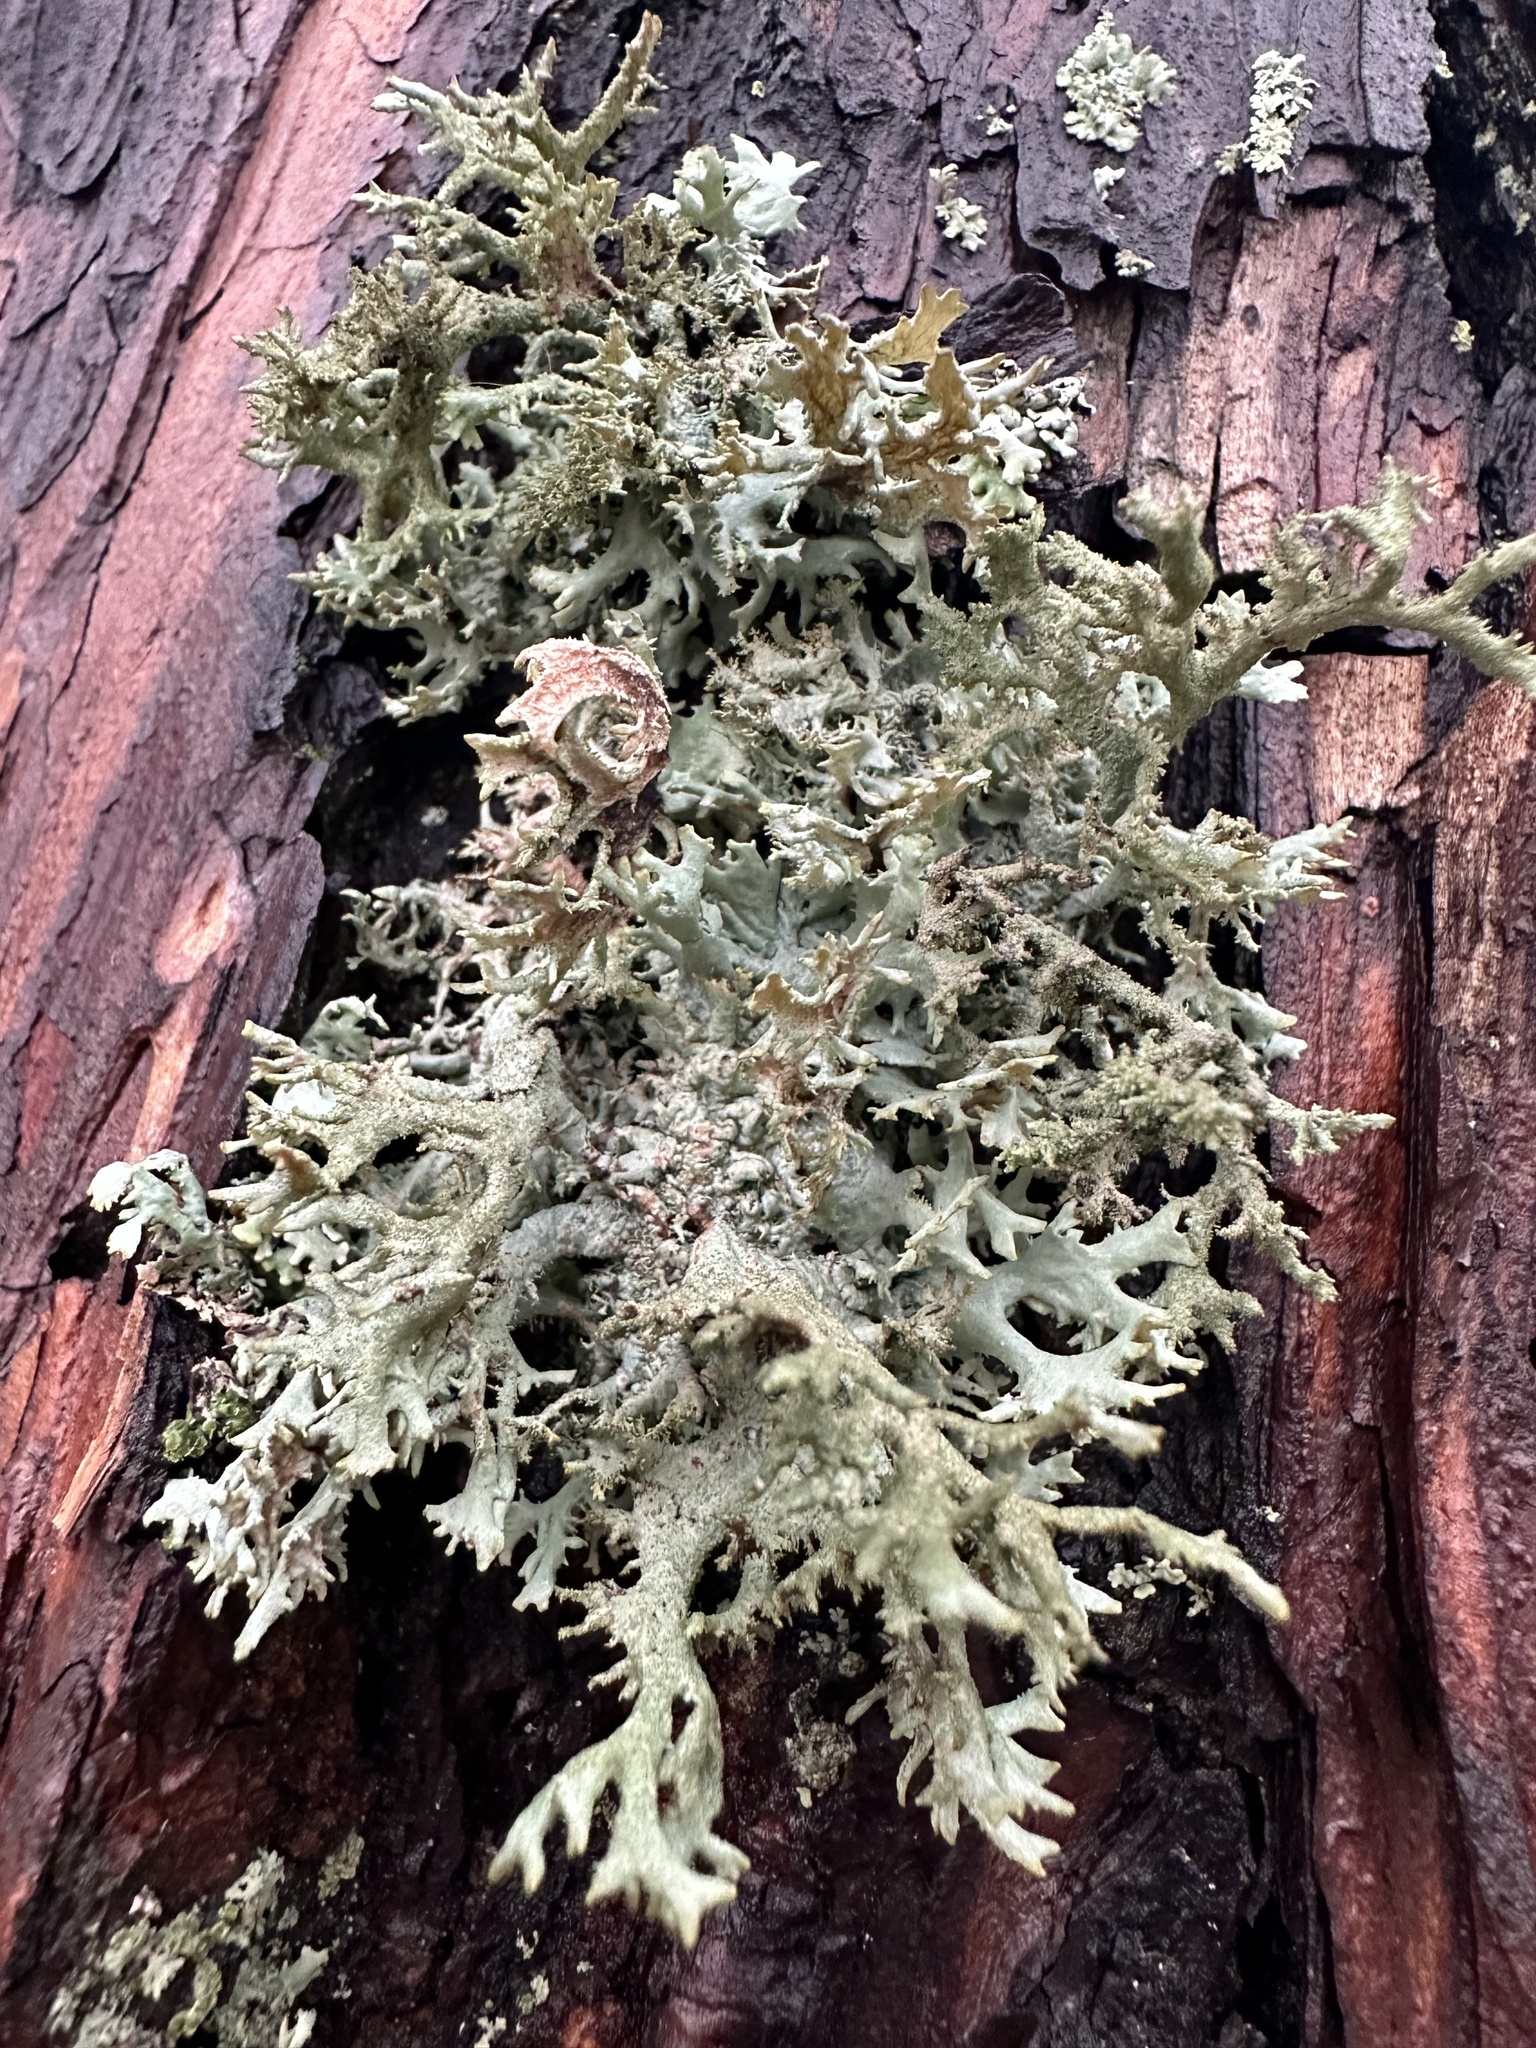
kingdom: Fungi
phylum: Ascomycota
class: Lecanoromycetes
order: Lecanorales
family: Parmeliaceae
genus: Pseudevernia
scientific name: Pseudevernia furfuracea
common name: Tree moss
